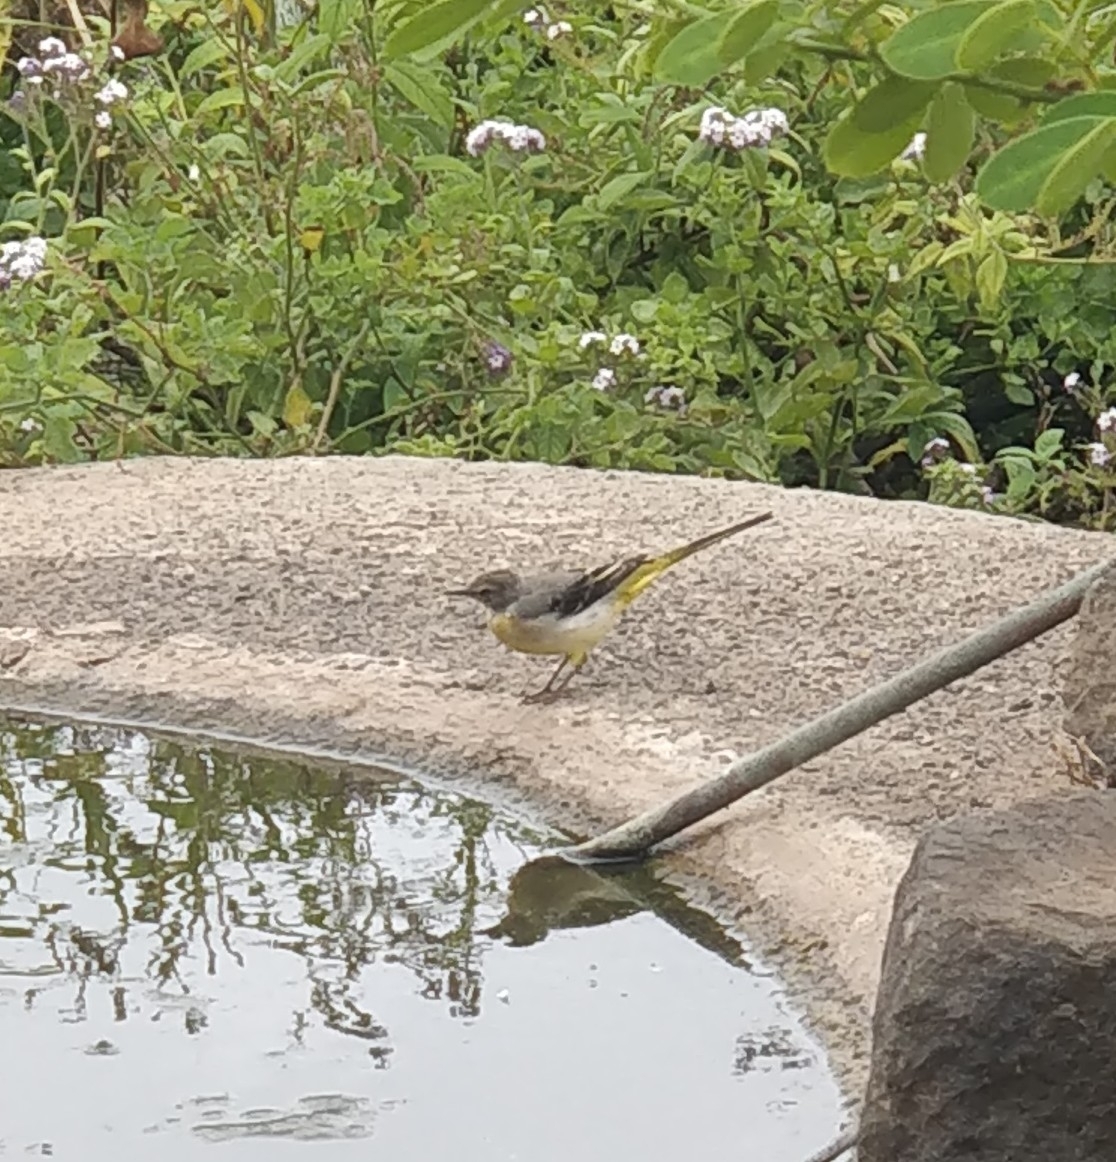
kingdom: Animalia
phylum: Chordata
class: Aves
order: Passeriformes
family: Motacillidae
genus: Motacilla
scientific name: Motacilla cinerea
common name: Grey wagtail
